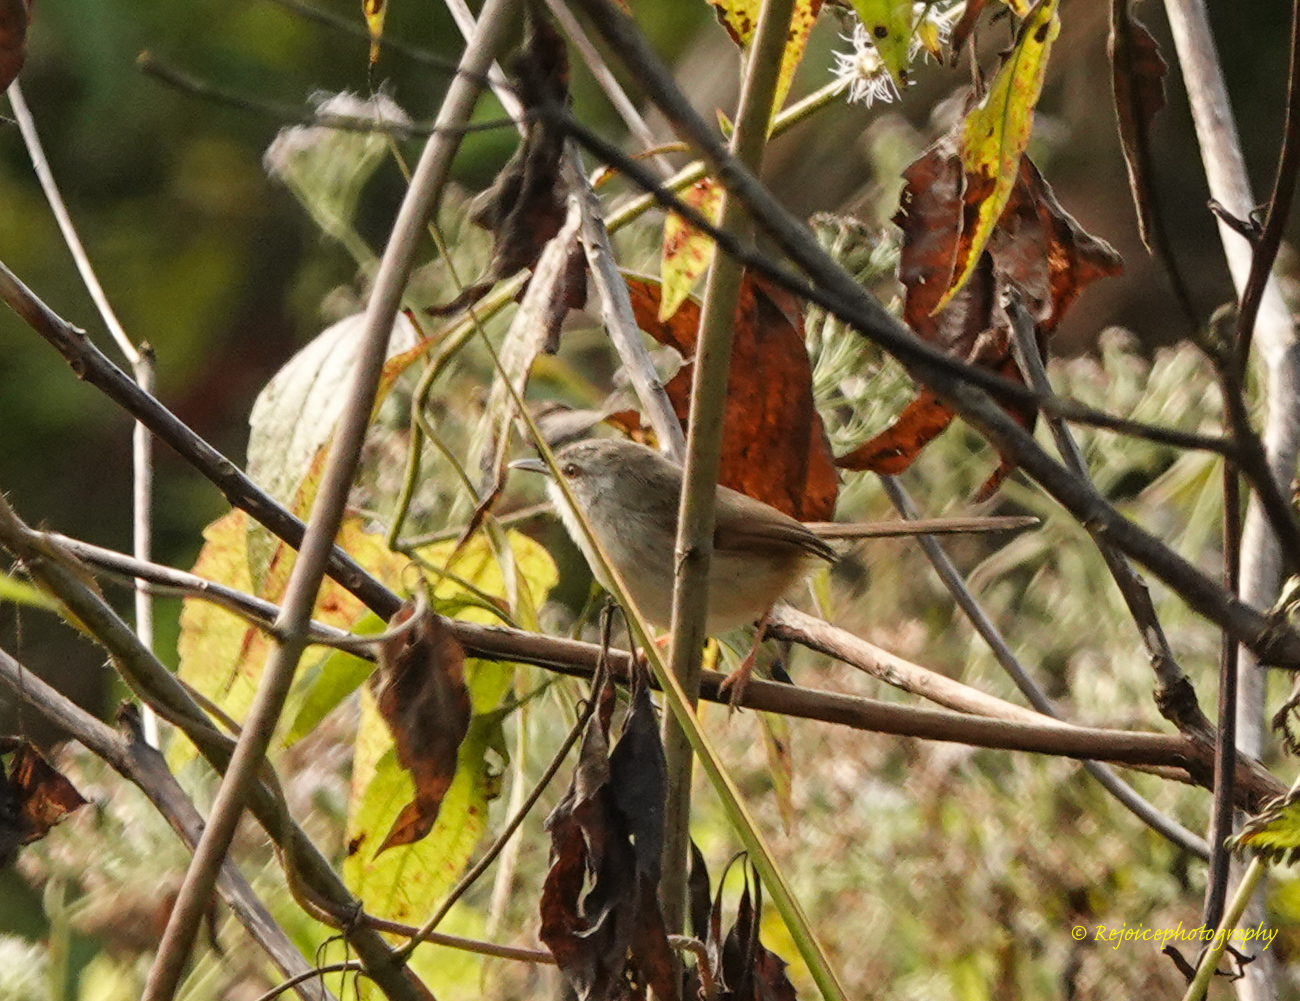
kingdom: Animalia
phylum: Chordata
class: Aves
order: Passeriformes
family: Cisticolidae
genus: Prinia
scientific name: Prinia rufescens
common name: Rufescent prinia
